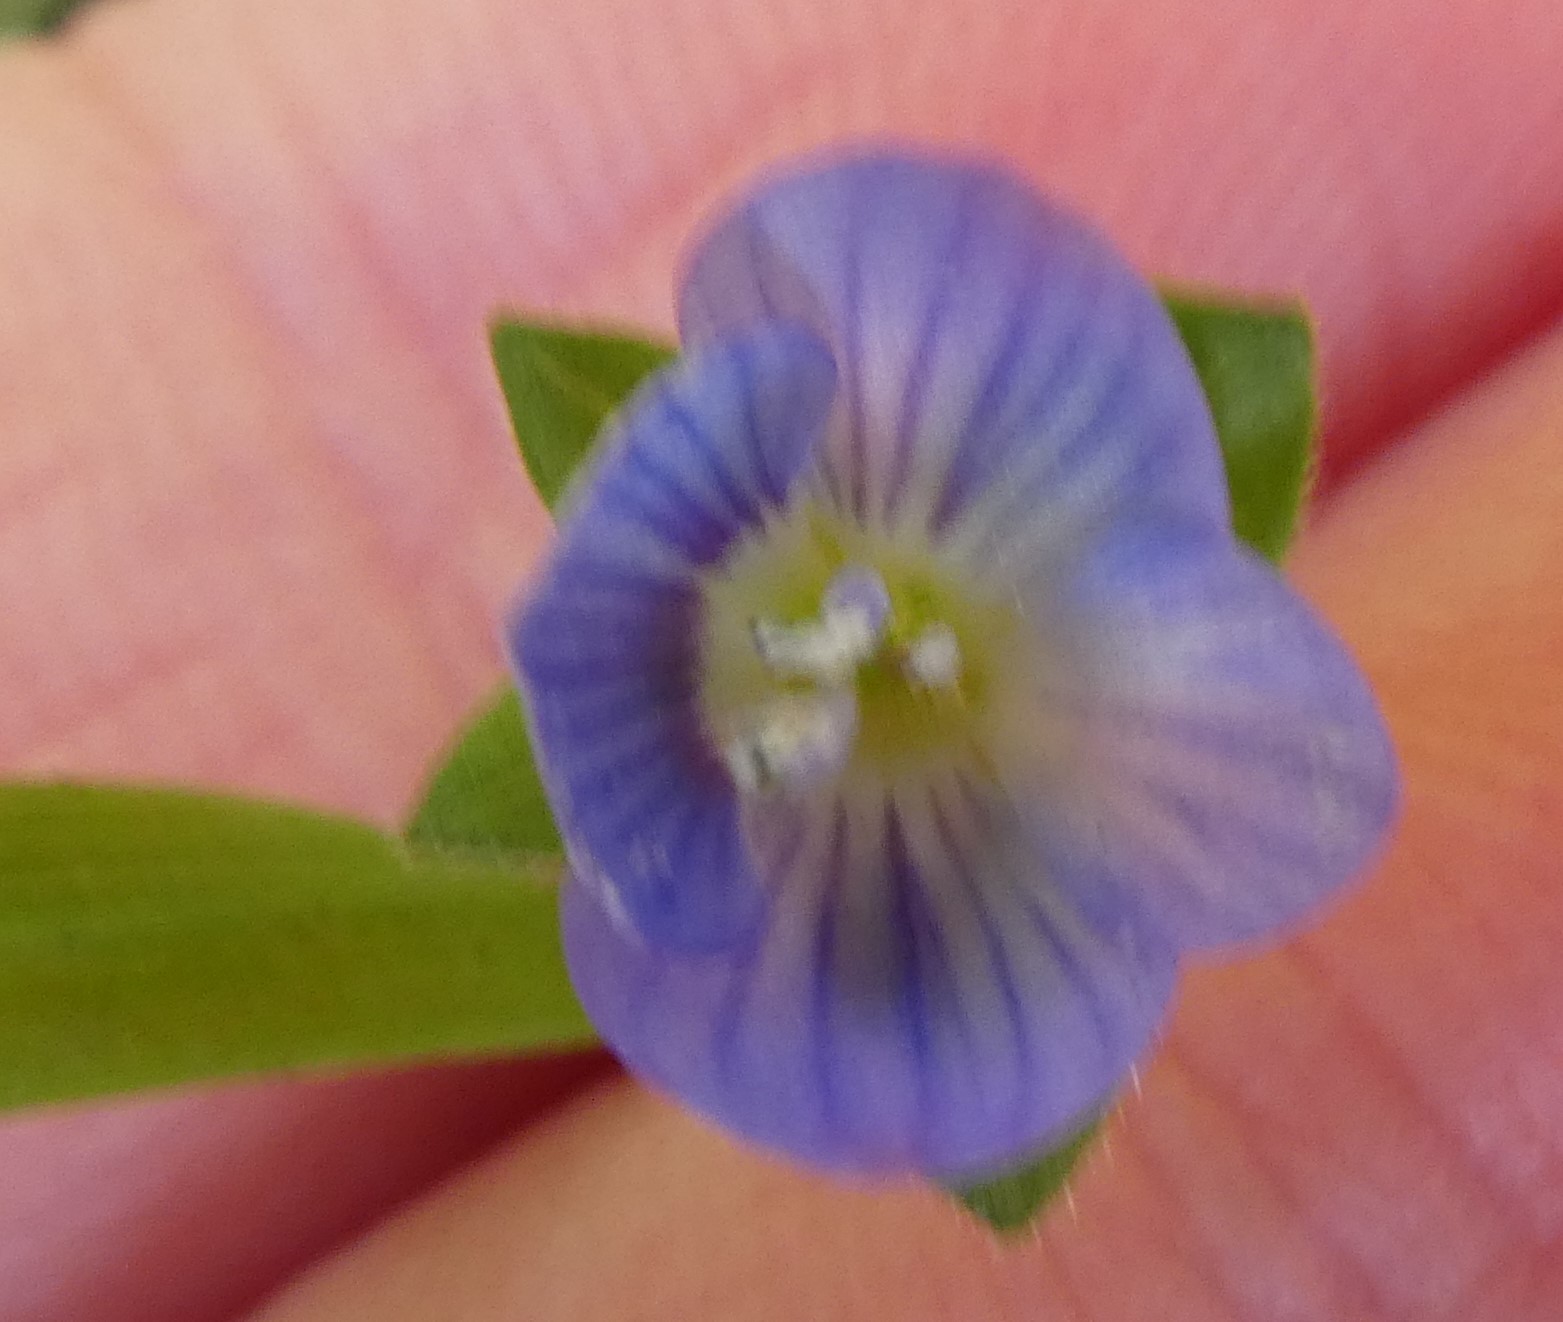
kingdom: Plantae
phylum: Tracheophyta
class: Magnoliopsida
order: Lamiales
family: Plantaginaceae
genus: Veronica
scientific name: Veronica persica
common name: Common field-speedwell
